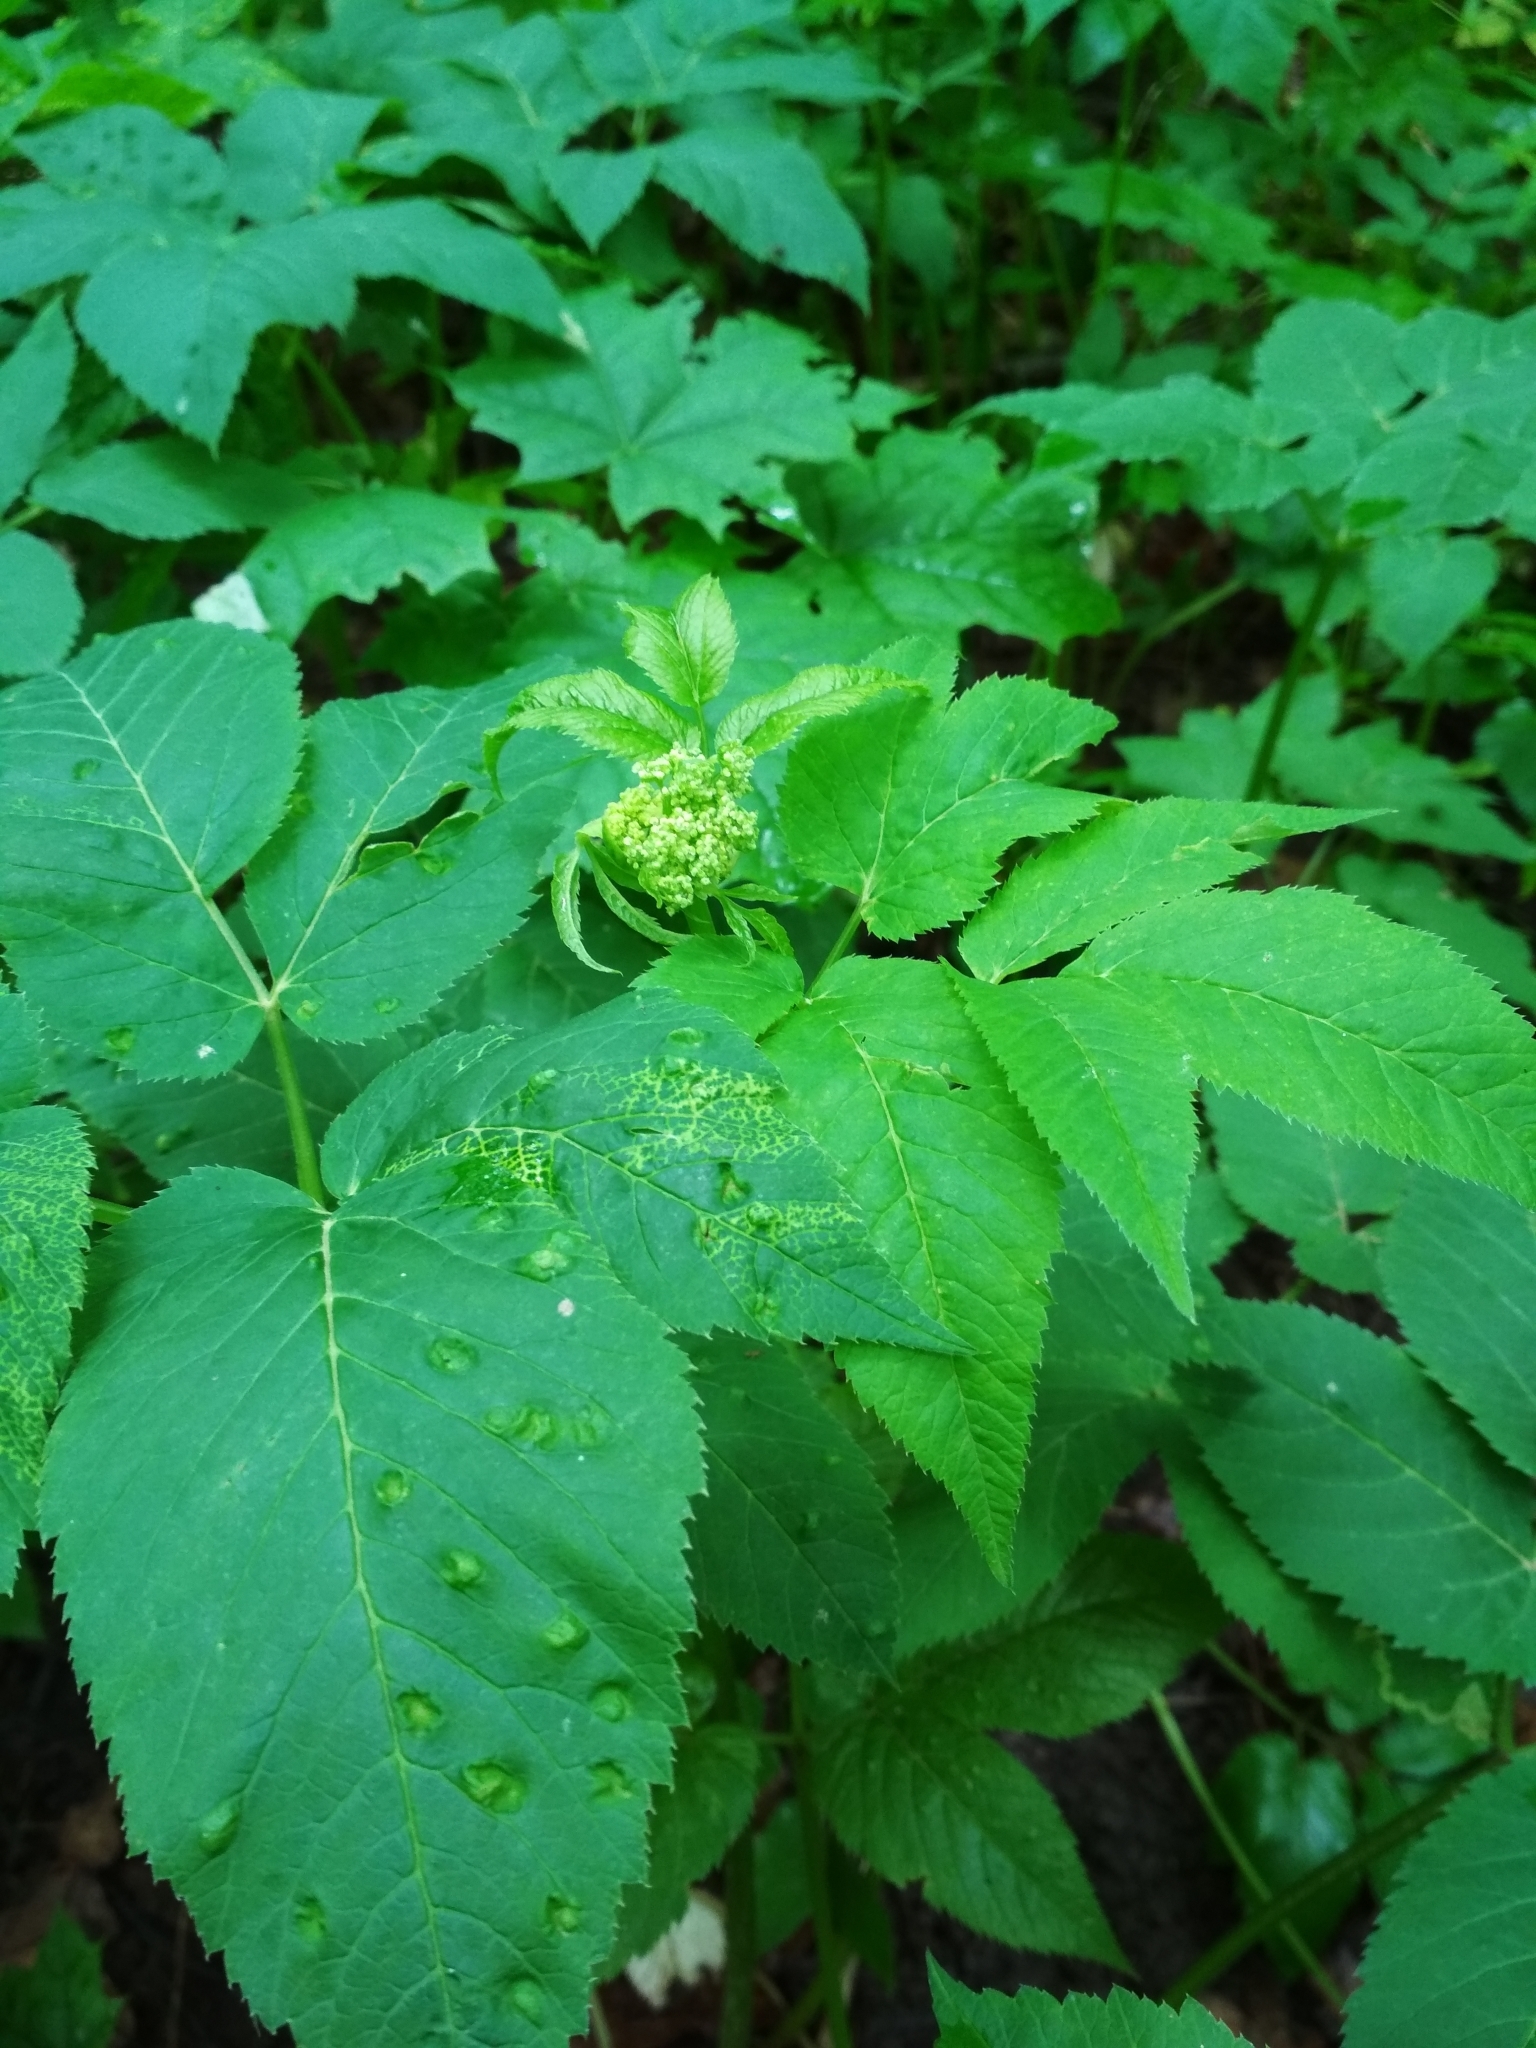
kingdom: Plantae
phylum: Tracheophyta
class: Magnoliopsida
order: Apiales
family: Apiaceae
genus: Aegopodium
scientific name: Aegopodium podagraria
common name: Ground-elder
